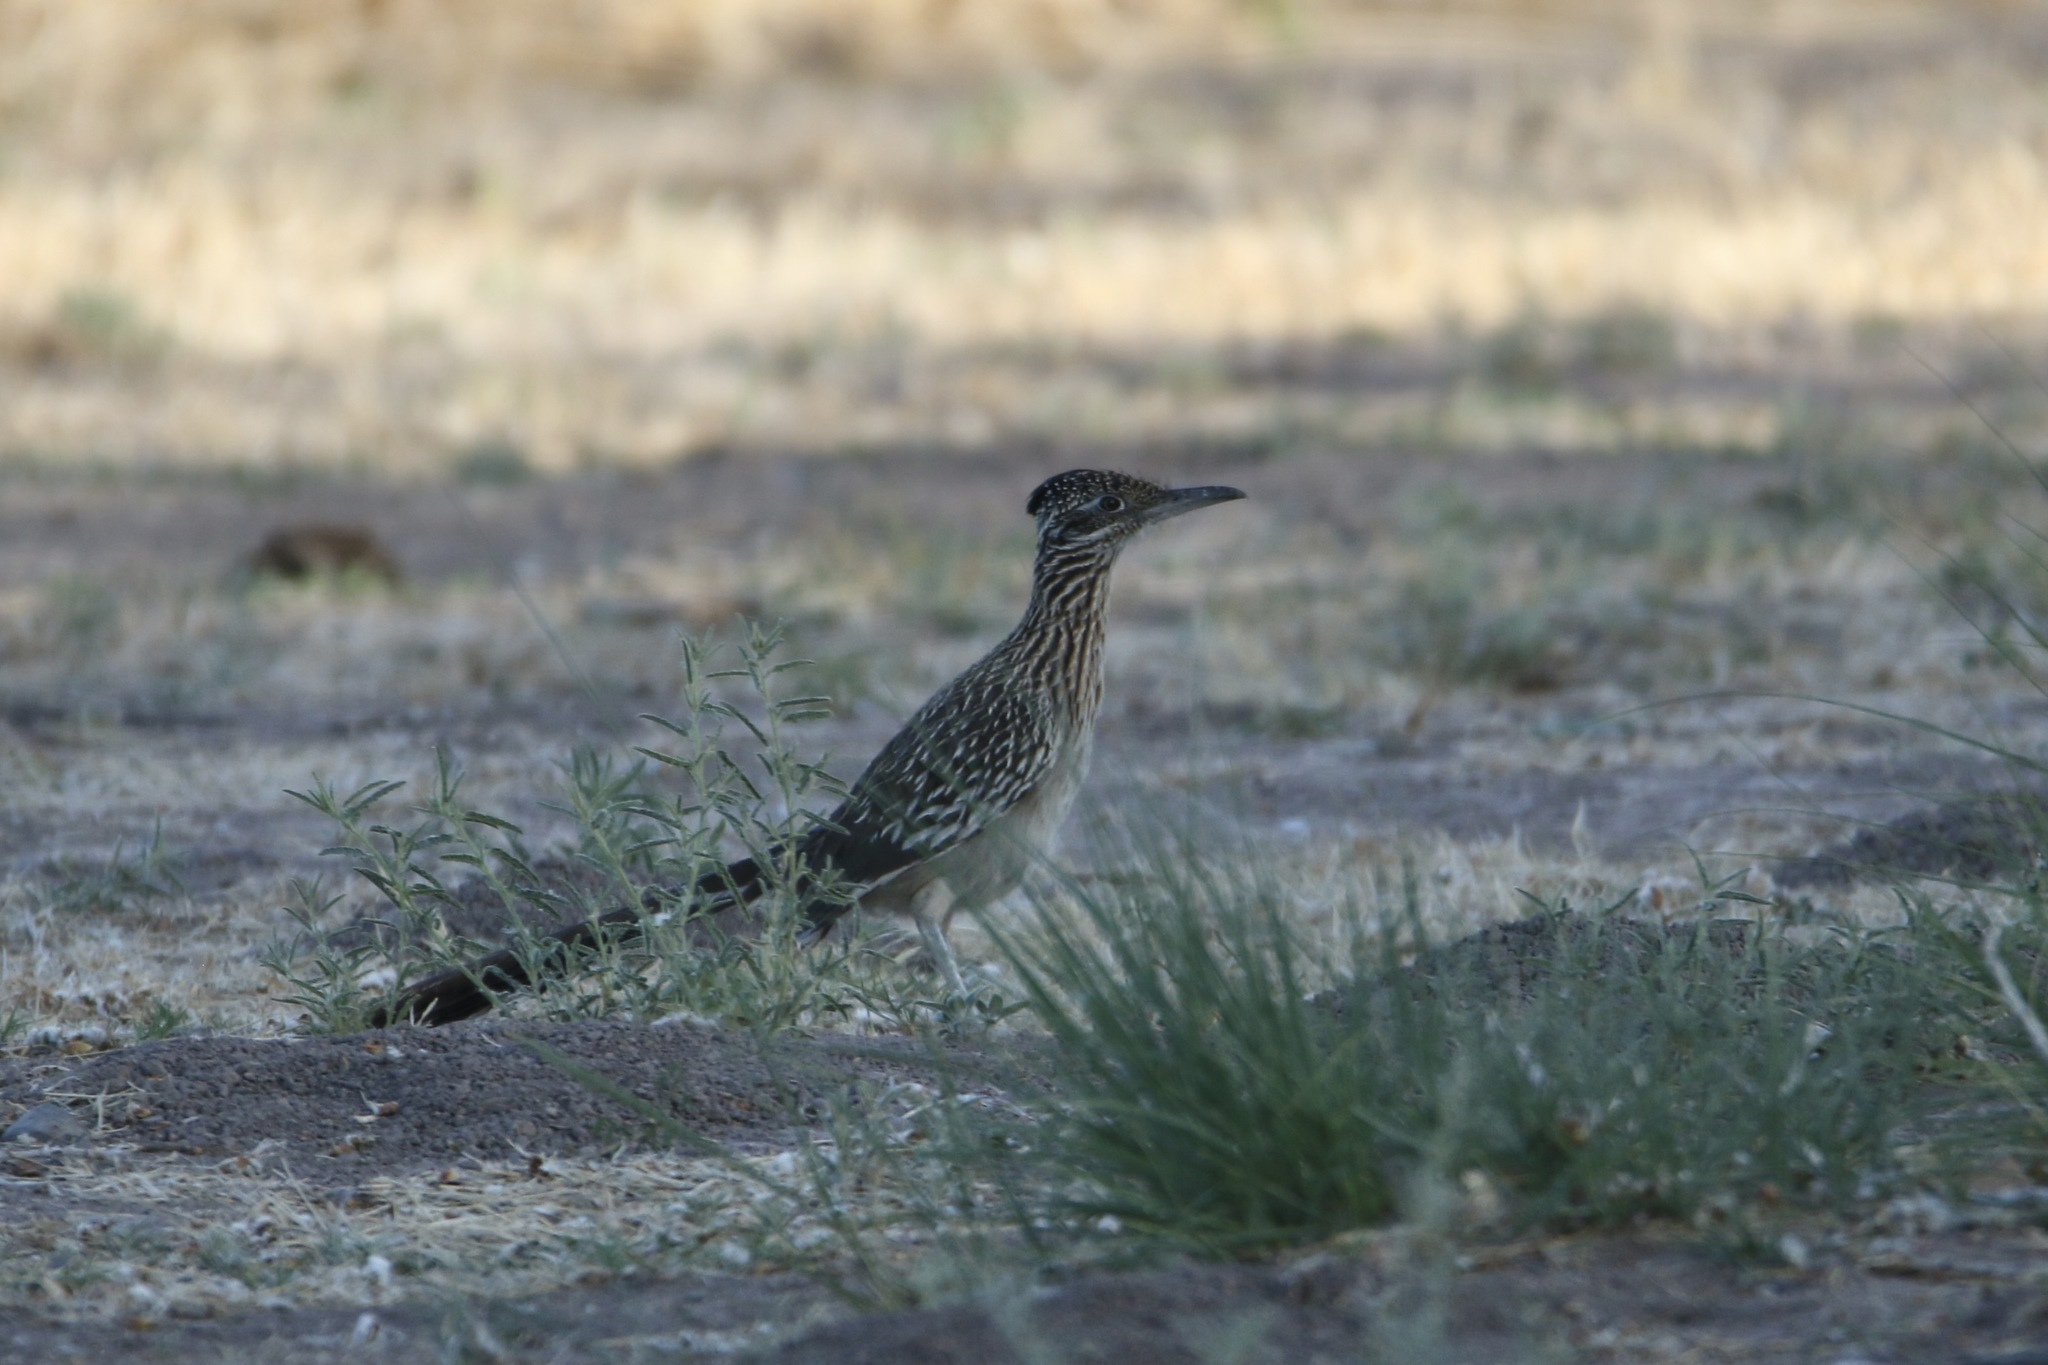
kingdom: Animalia
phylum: Chordata
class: Aves
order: Cuculiformes
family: Cuculidae
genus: Geococcyx
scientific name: Geococcyx californianus
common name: Greater roadrunner
